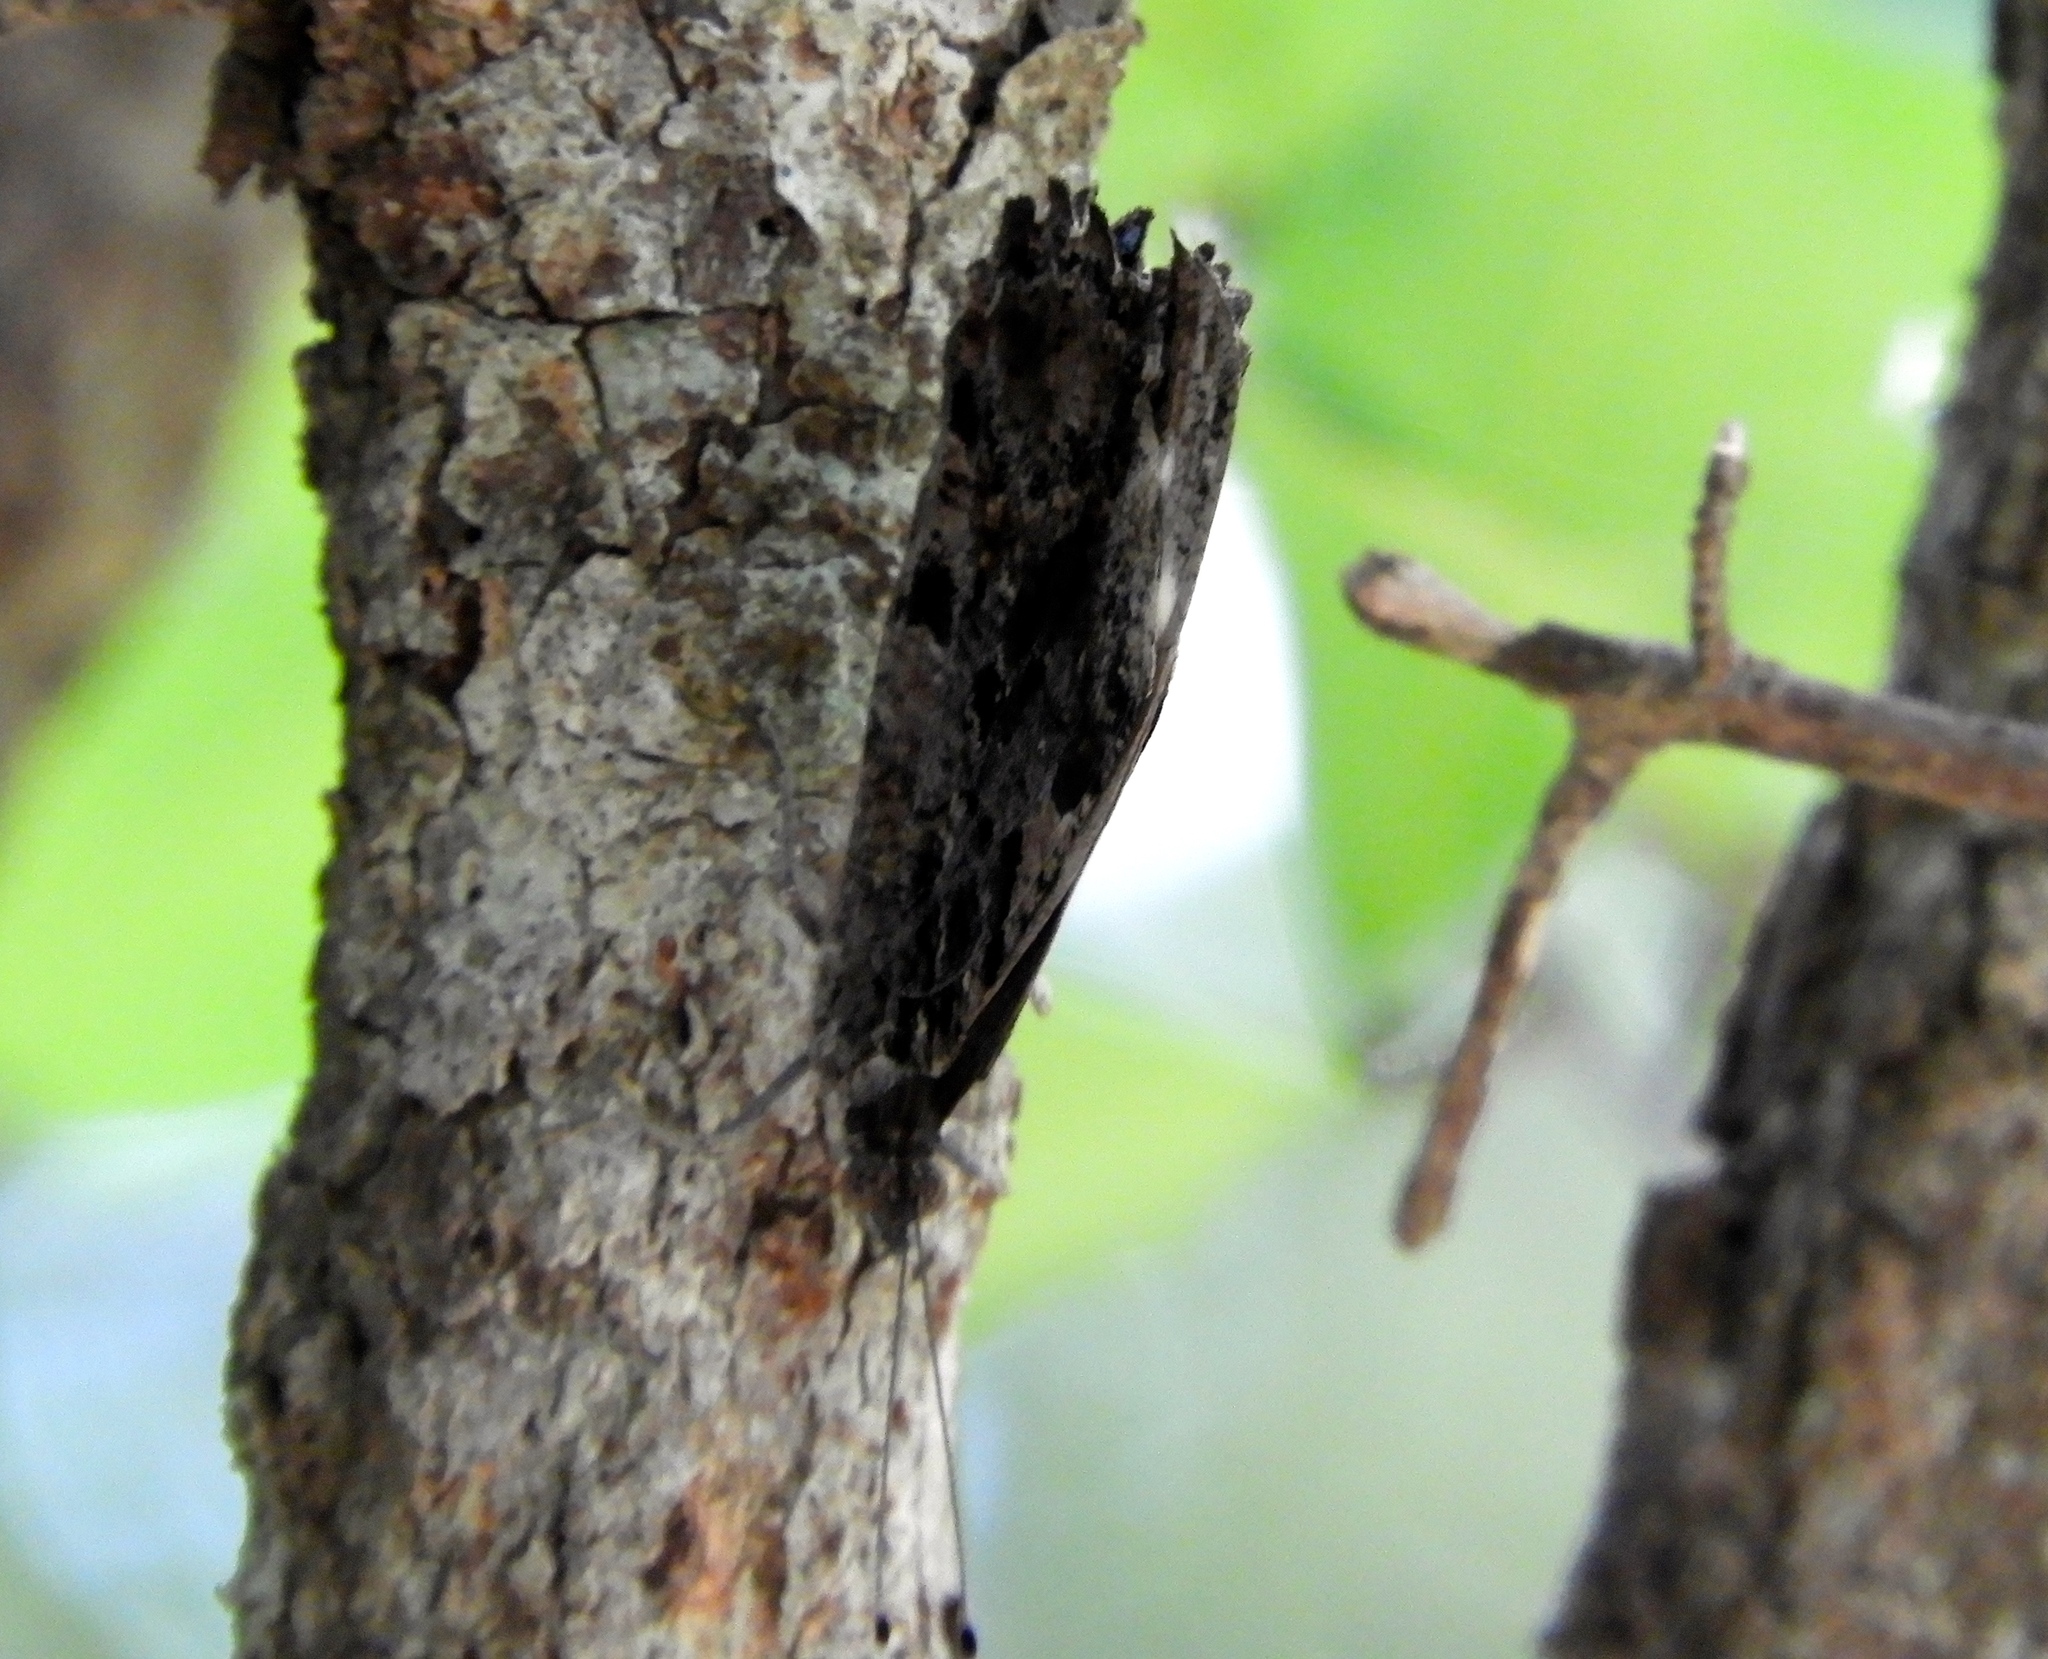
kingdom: Animalia
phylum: Arthropoda
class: Insecta
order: Lepidoptera
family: Nymphalidae
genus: Myscelia
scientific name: Myscelia
